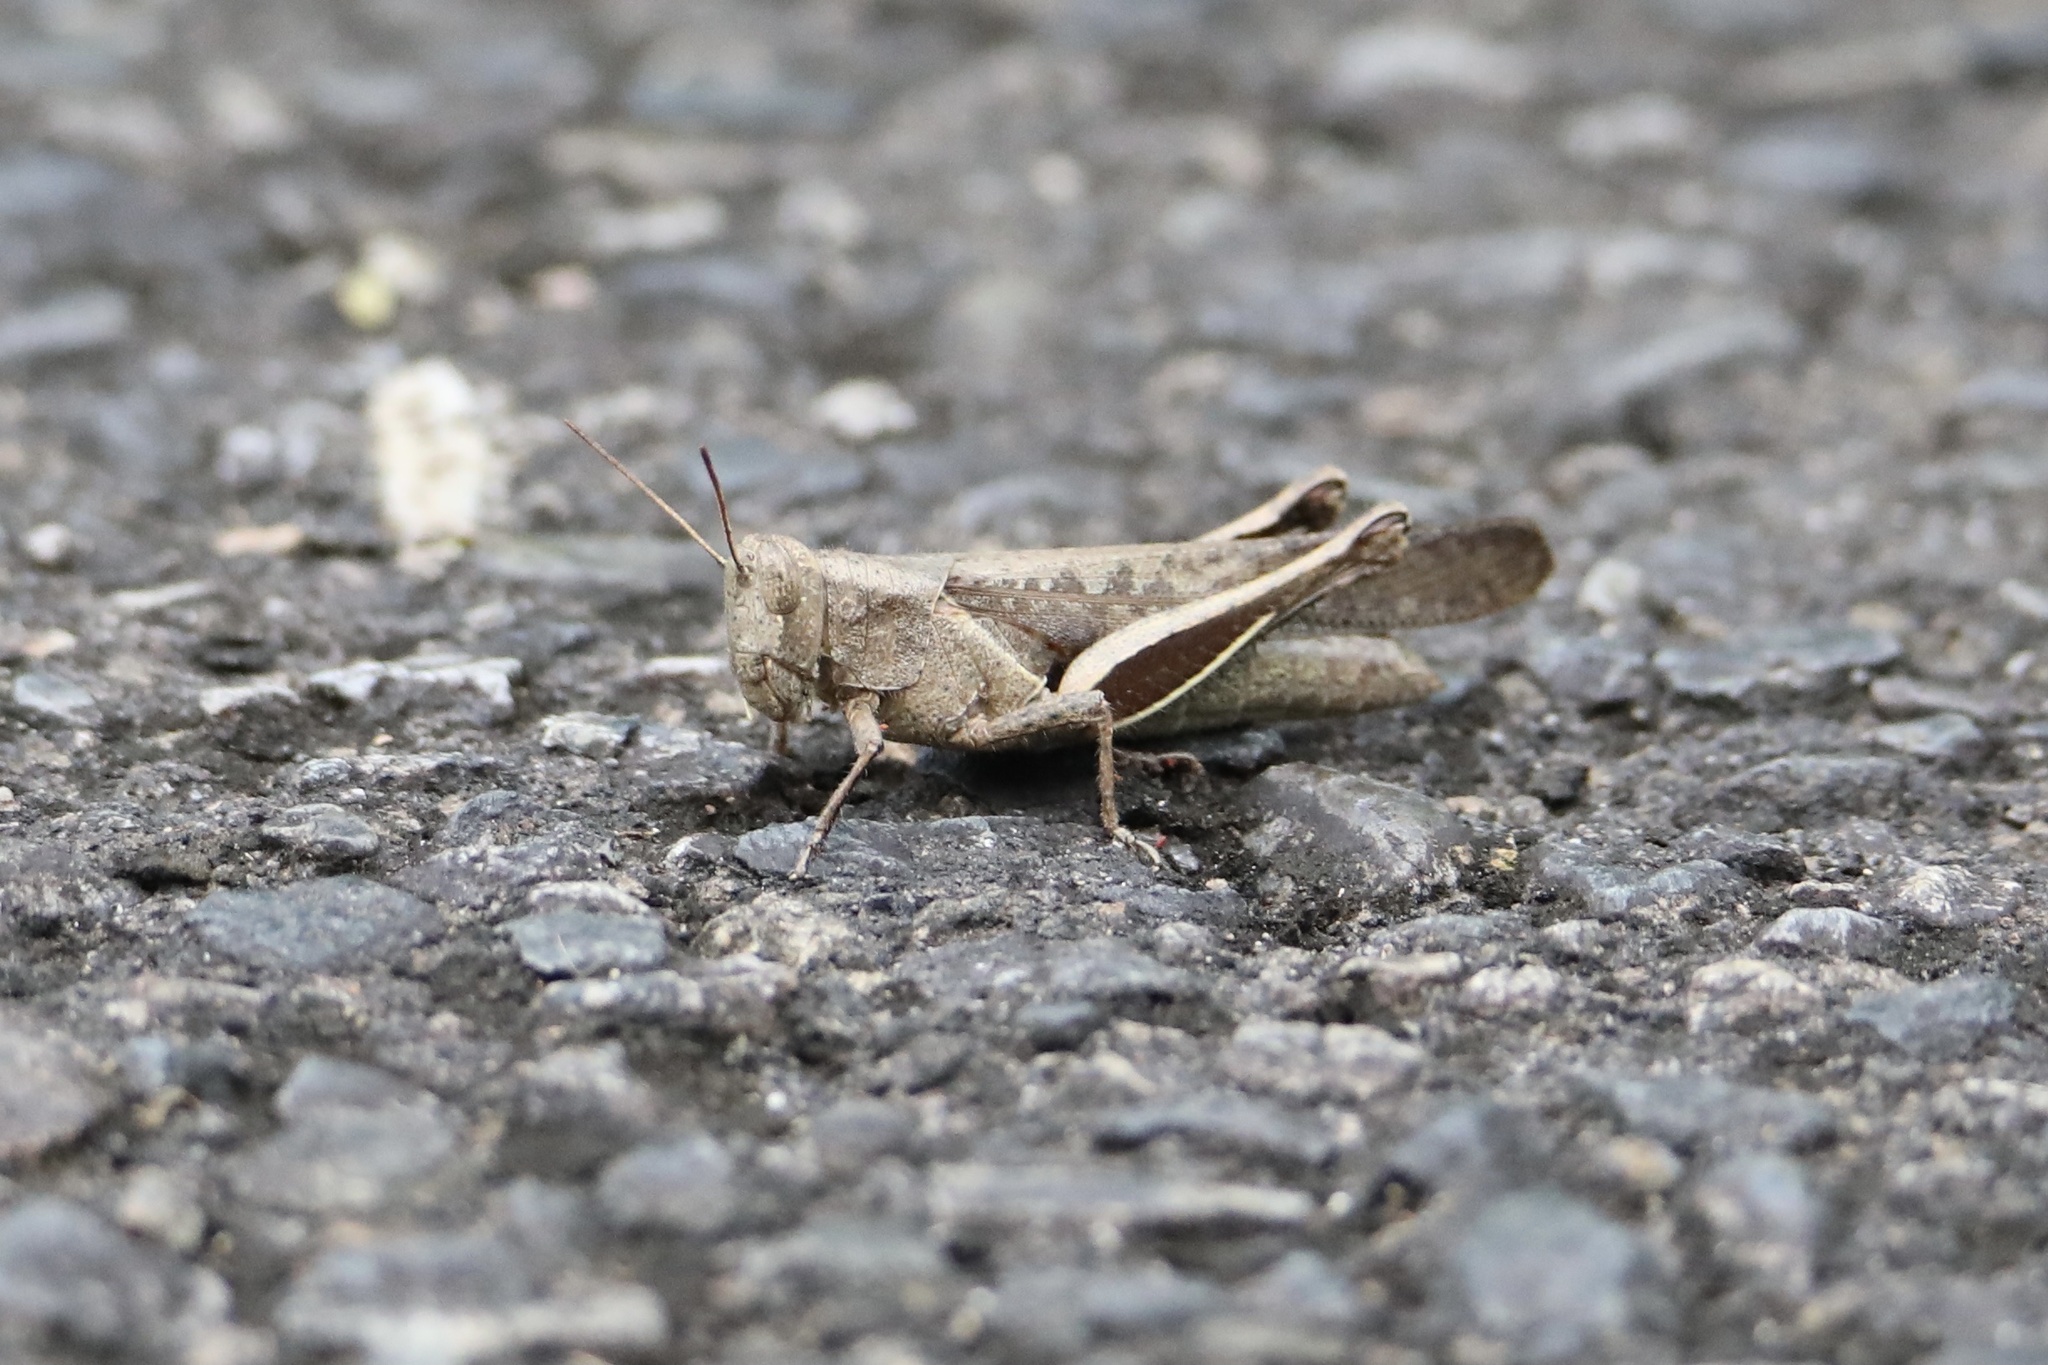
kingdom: Animalia
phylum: Arthropoda
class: Insecta
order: Orthoptera
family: Acrididae
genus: Abracris
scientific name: Abracris flavolineata
